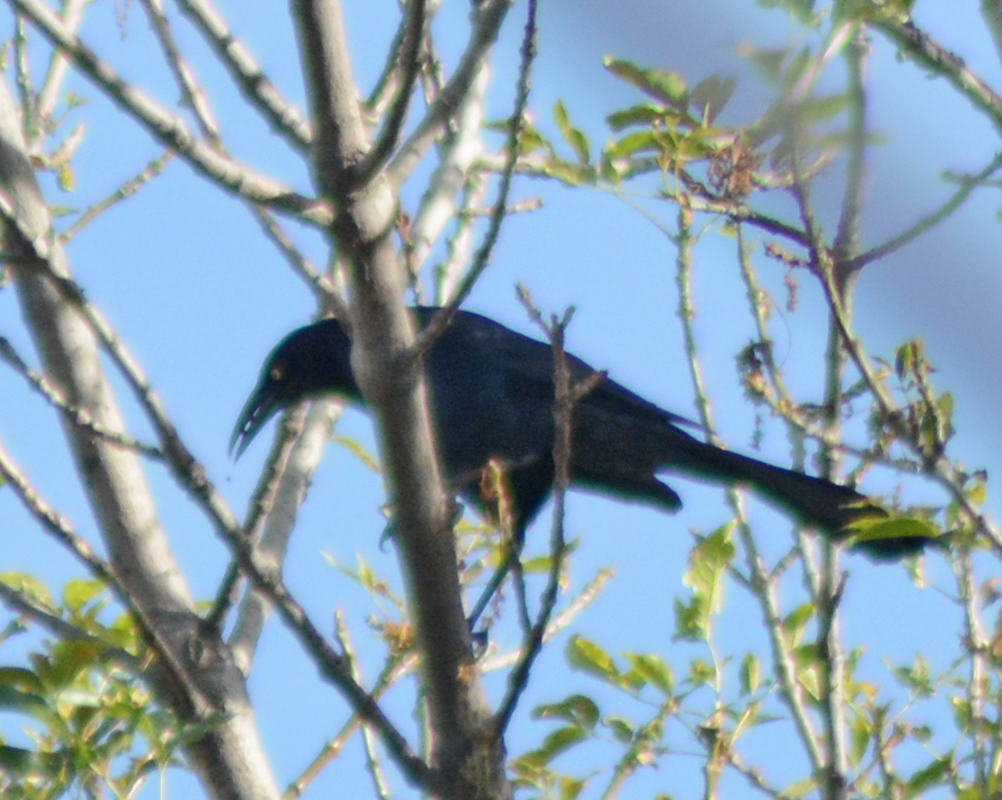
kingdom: Animalia
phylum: Chordata
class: Aves
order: Passeriformes
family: Icteridae
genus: Quiscalus
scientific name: Quiscalus mexicanus
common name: Great-tailed grackle
